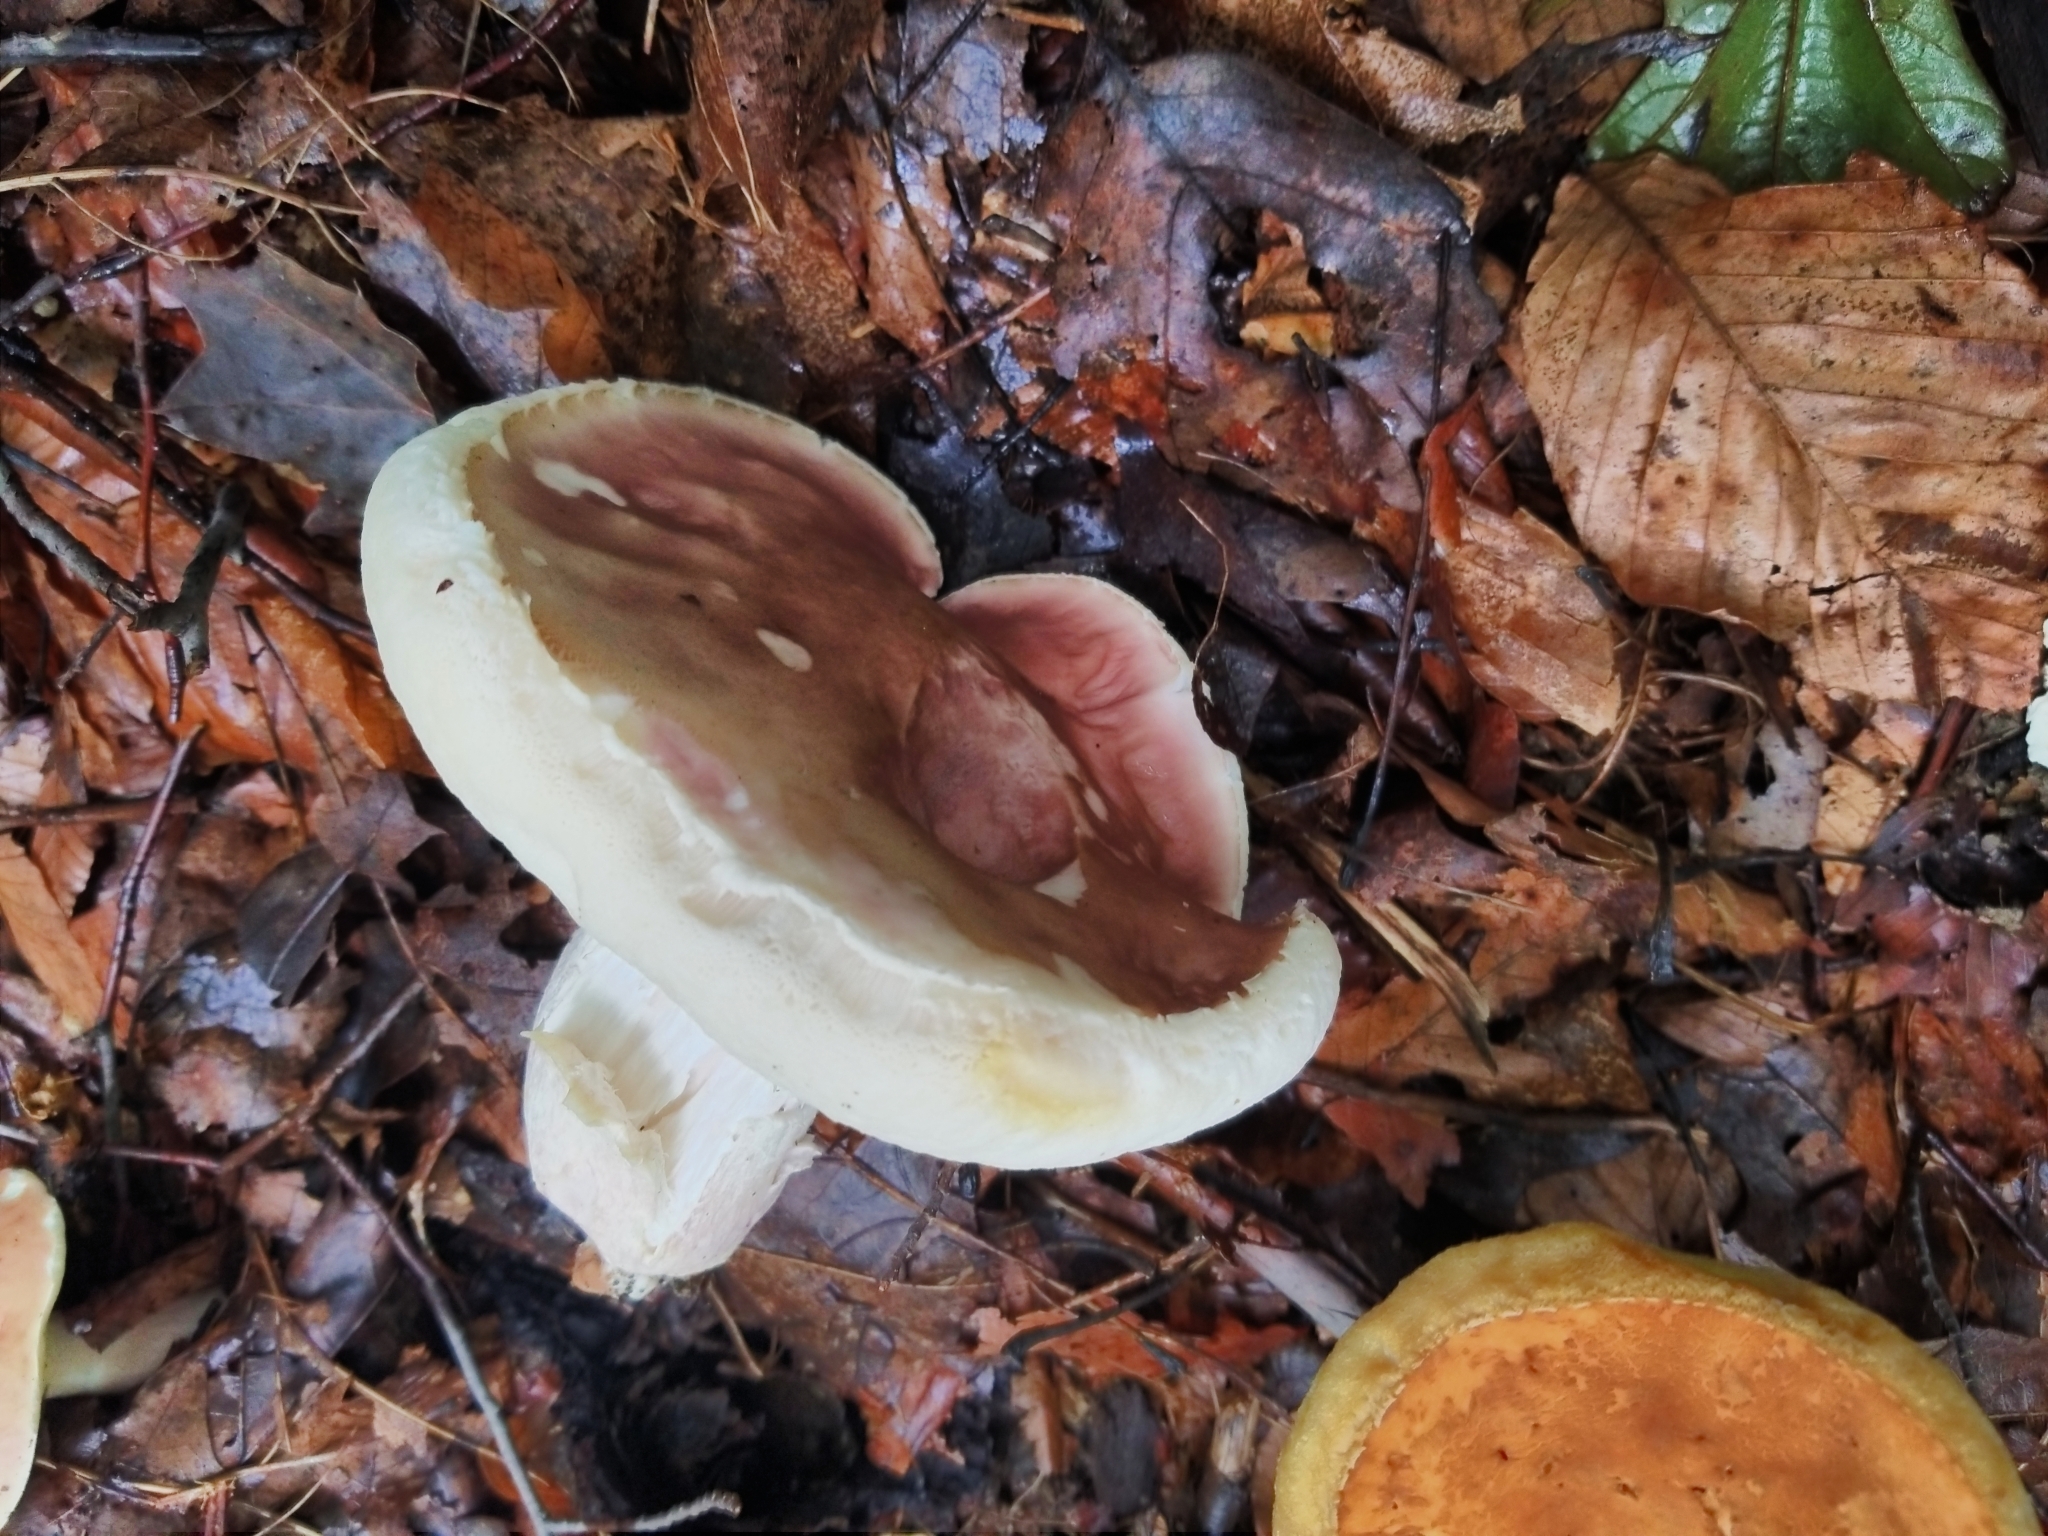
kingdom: Fungi
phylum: Basidiomycota
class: Agaricomycetes
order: Boletales
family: Boletaceae
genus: Xanthoconium
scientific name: Xanthoconium separans
